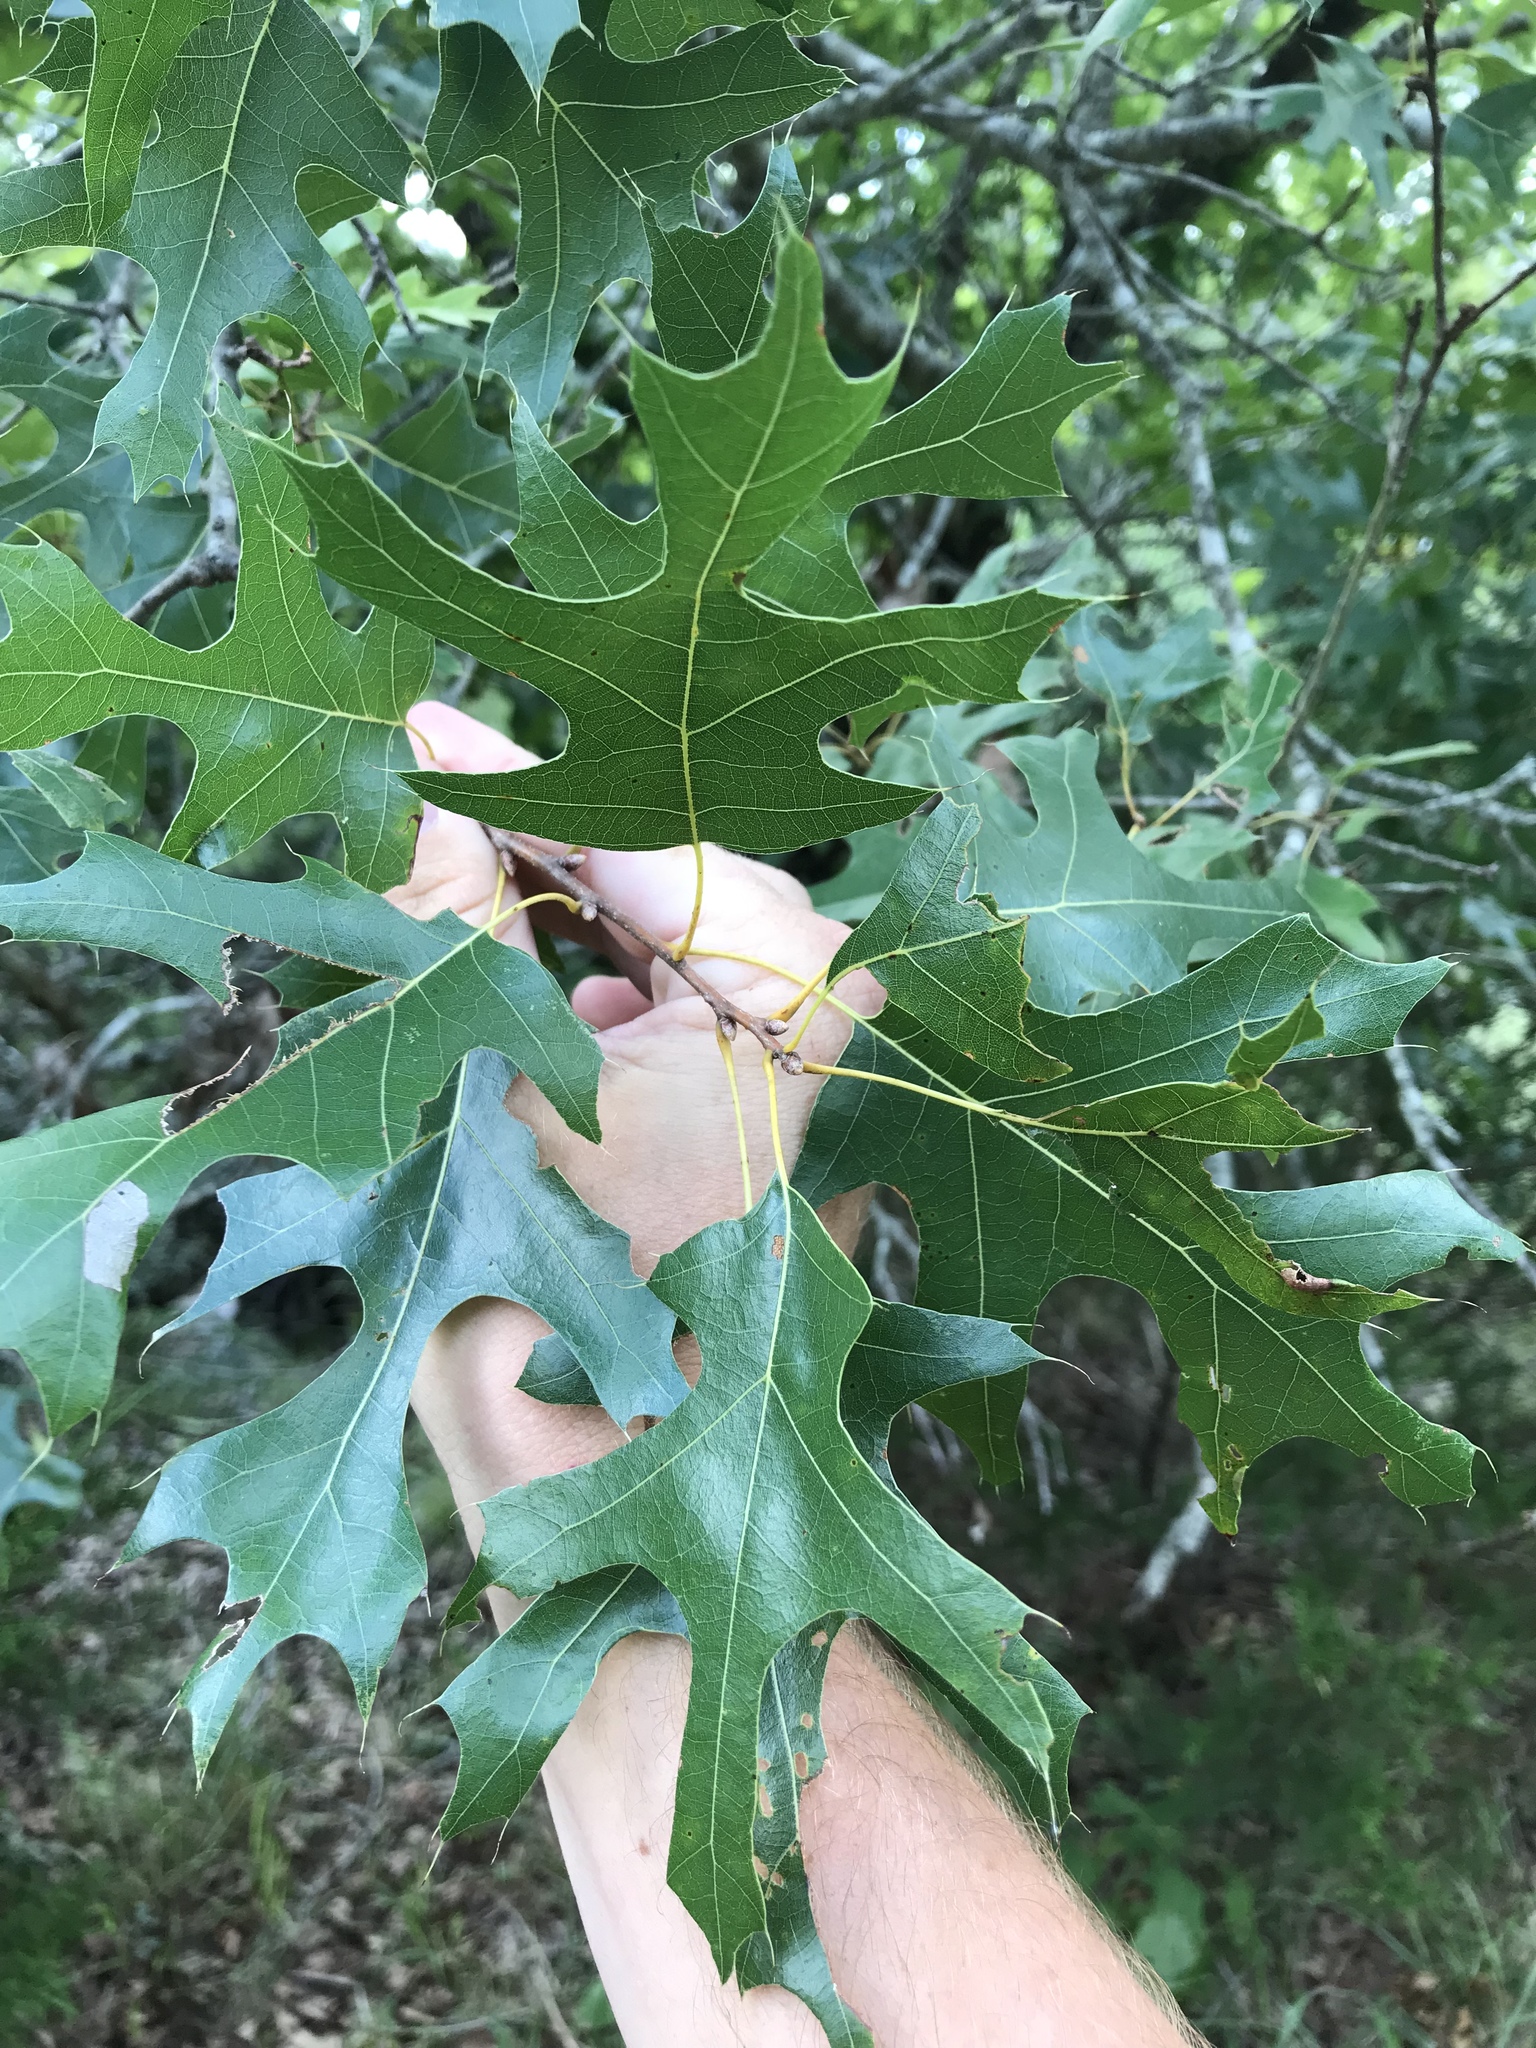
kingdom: Plantae
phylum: Tracheophyta
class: Magnoliopsida
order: Fagales
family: Fagaceae
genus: Quercus
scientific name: Quercus buckleyi
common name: Buckley oak
